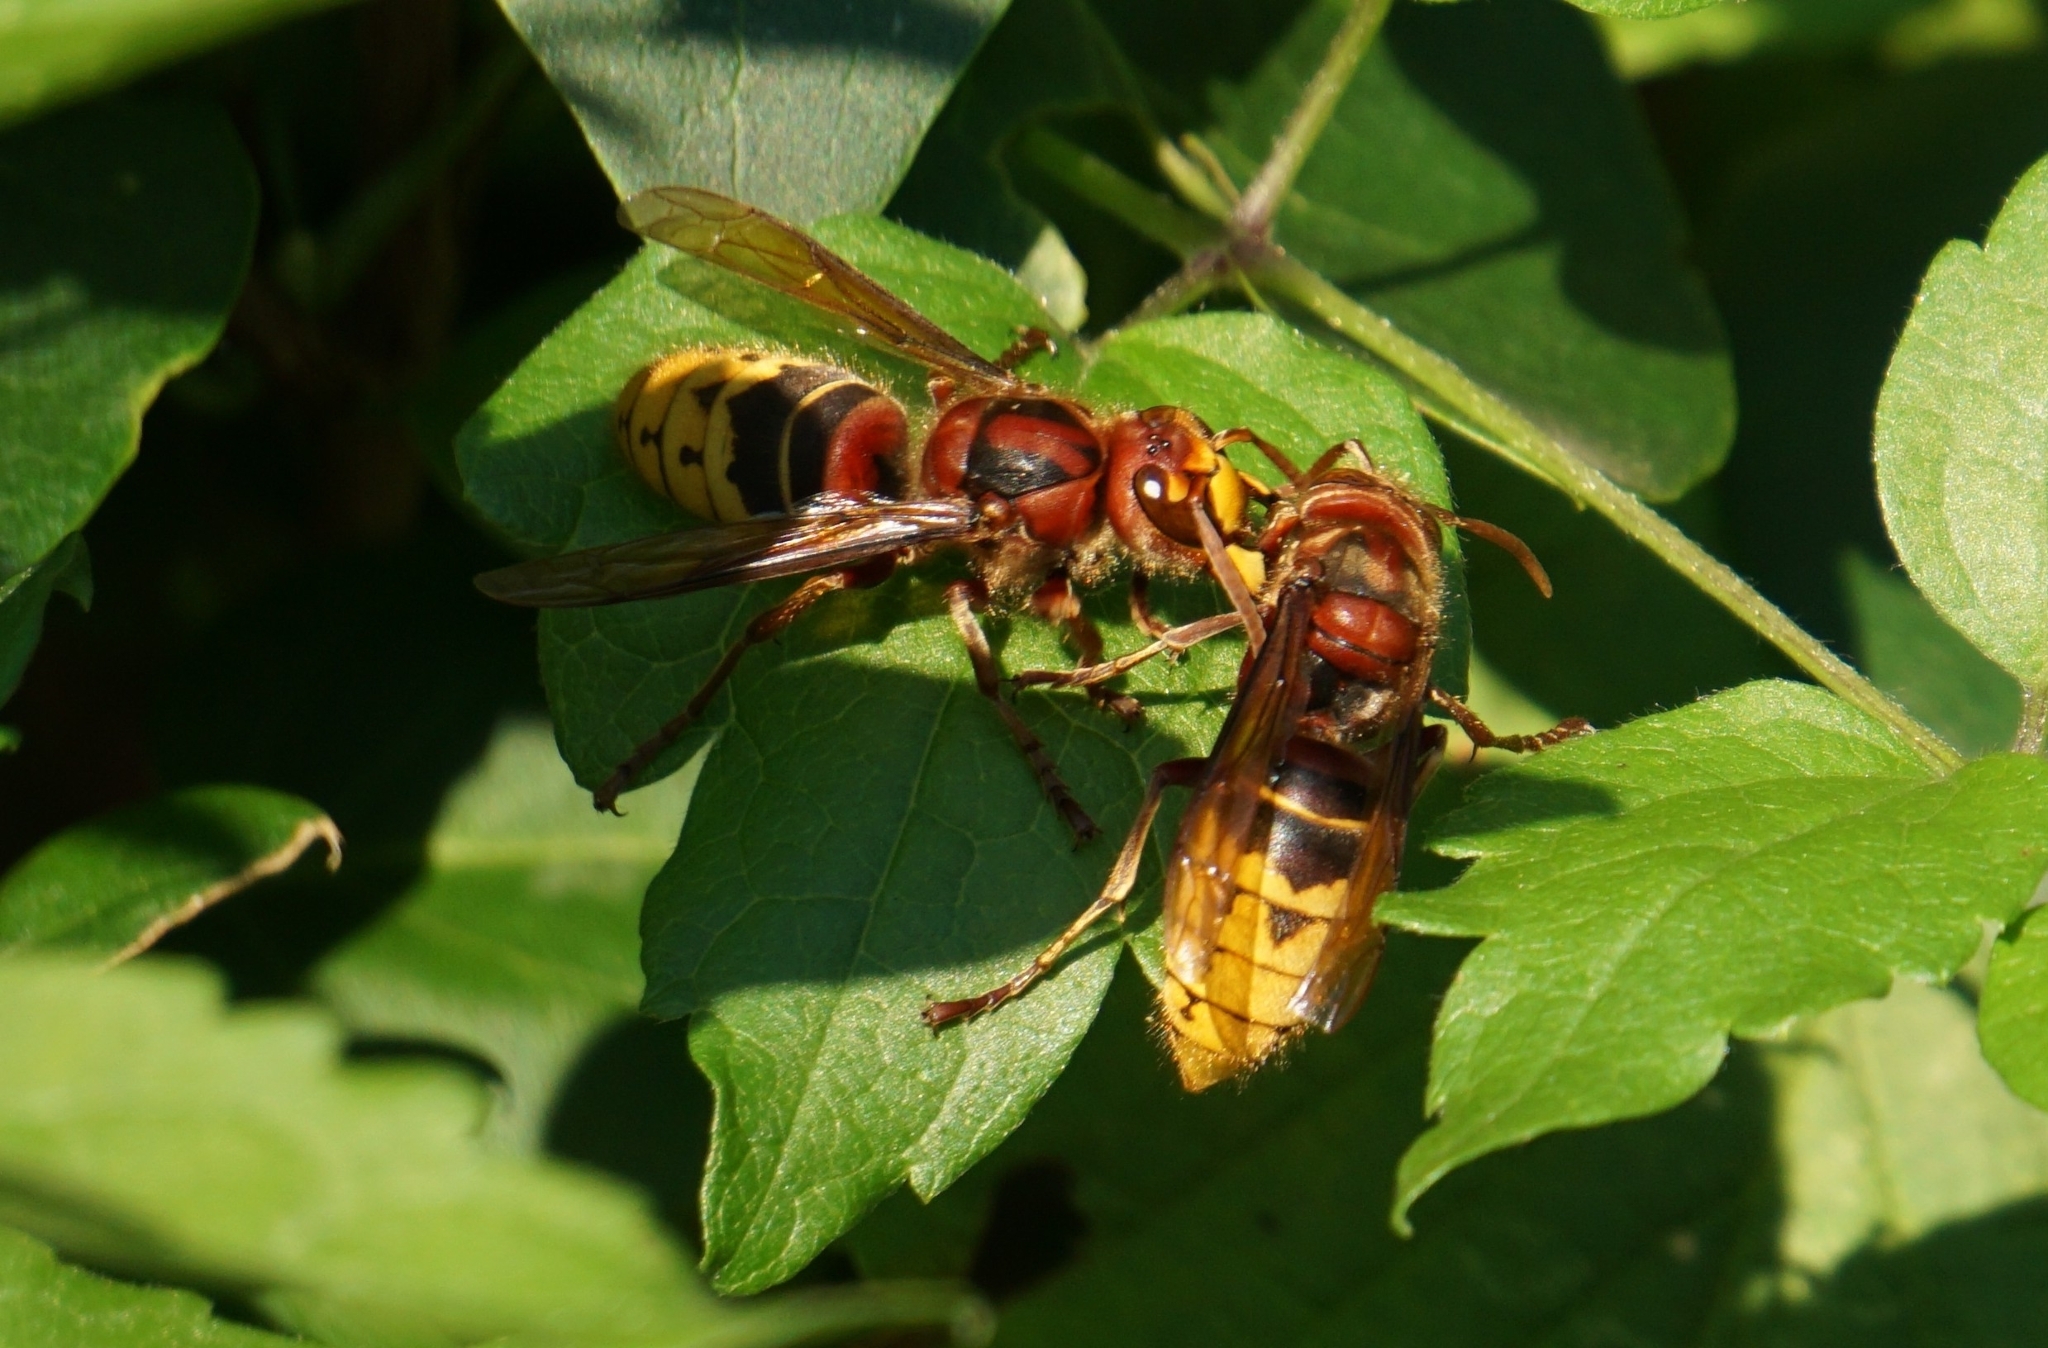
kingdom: Animalia
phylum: Arthropoda
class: Insecta
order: Hymenoptera
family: Vespidae
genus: Vespa
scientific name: Vespa crabro
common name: Hornet
